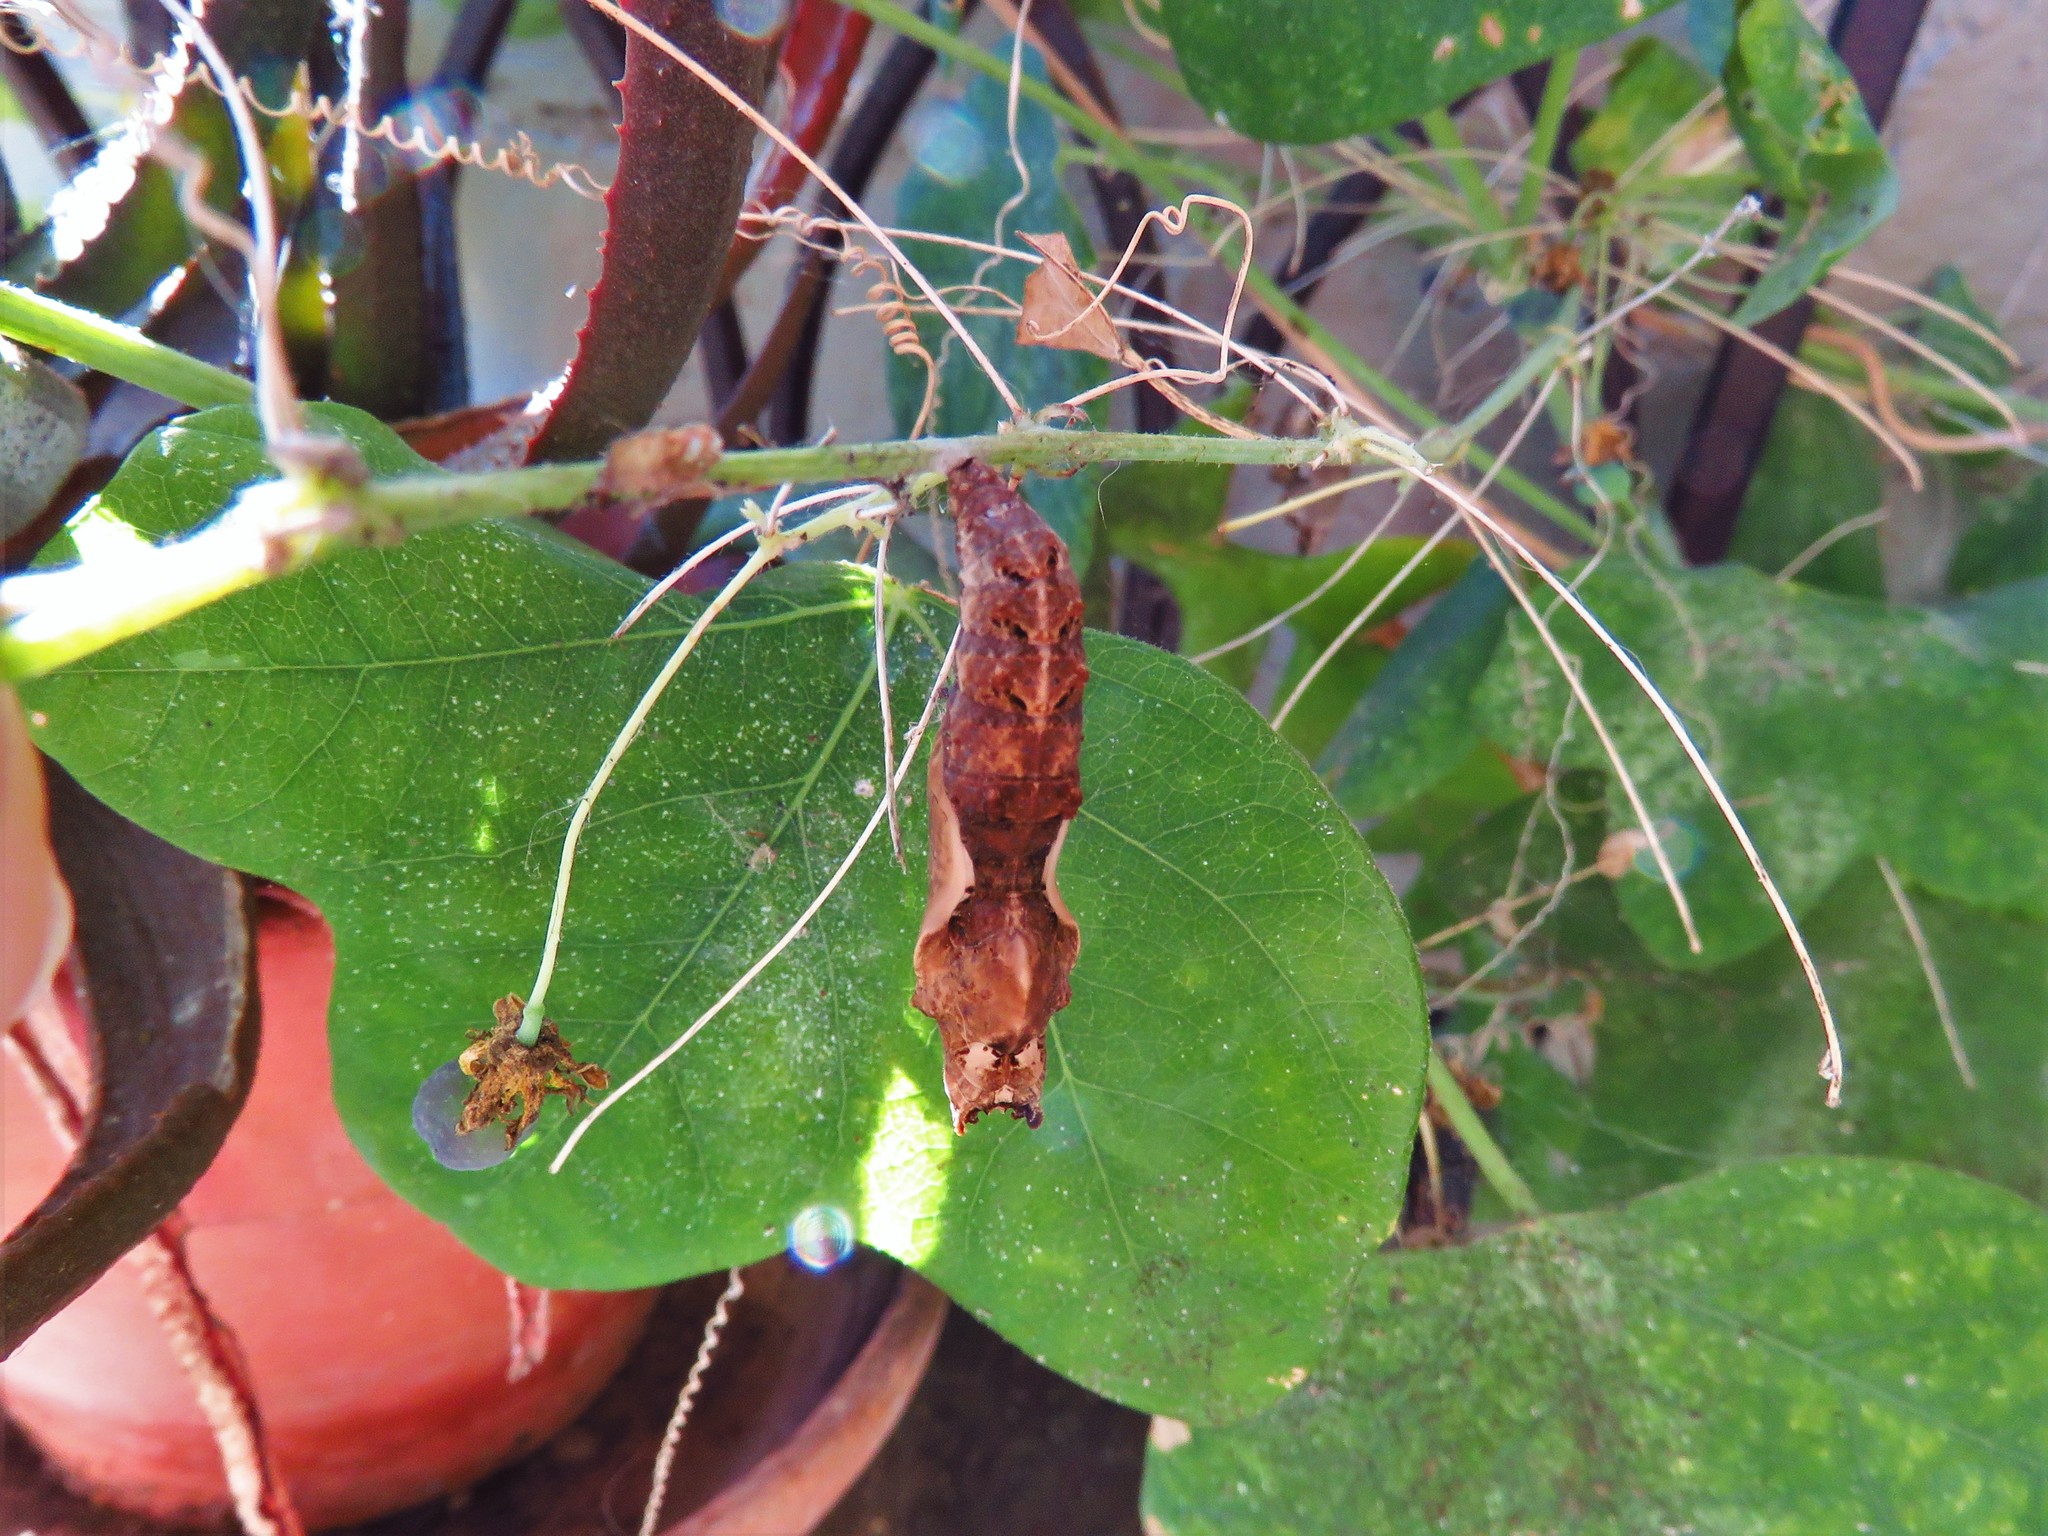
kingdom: Animalia
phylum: Arthropoda
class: Insecta
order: Lepidoptera
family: Nymphalidae
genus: Dione
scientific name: Dione vanillae
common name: Gulf fritillary
